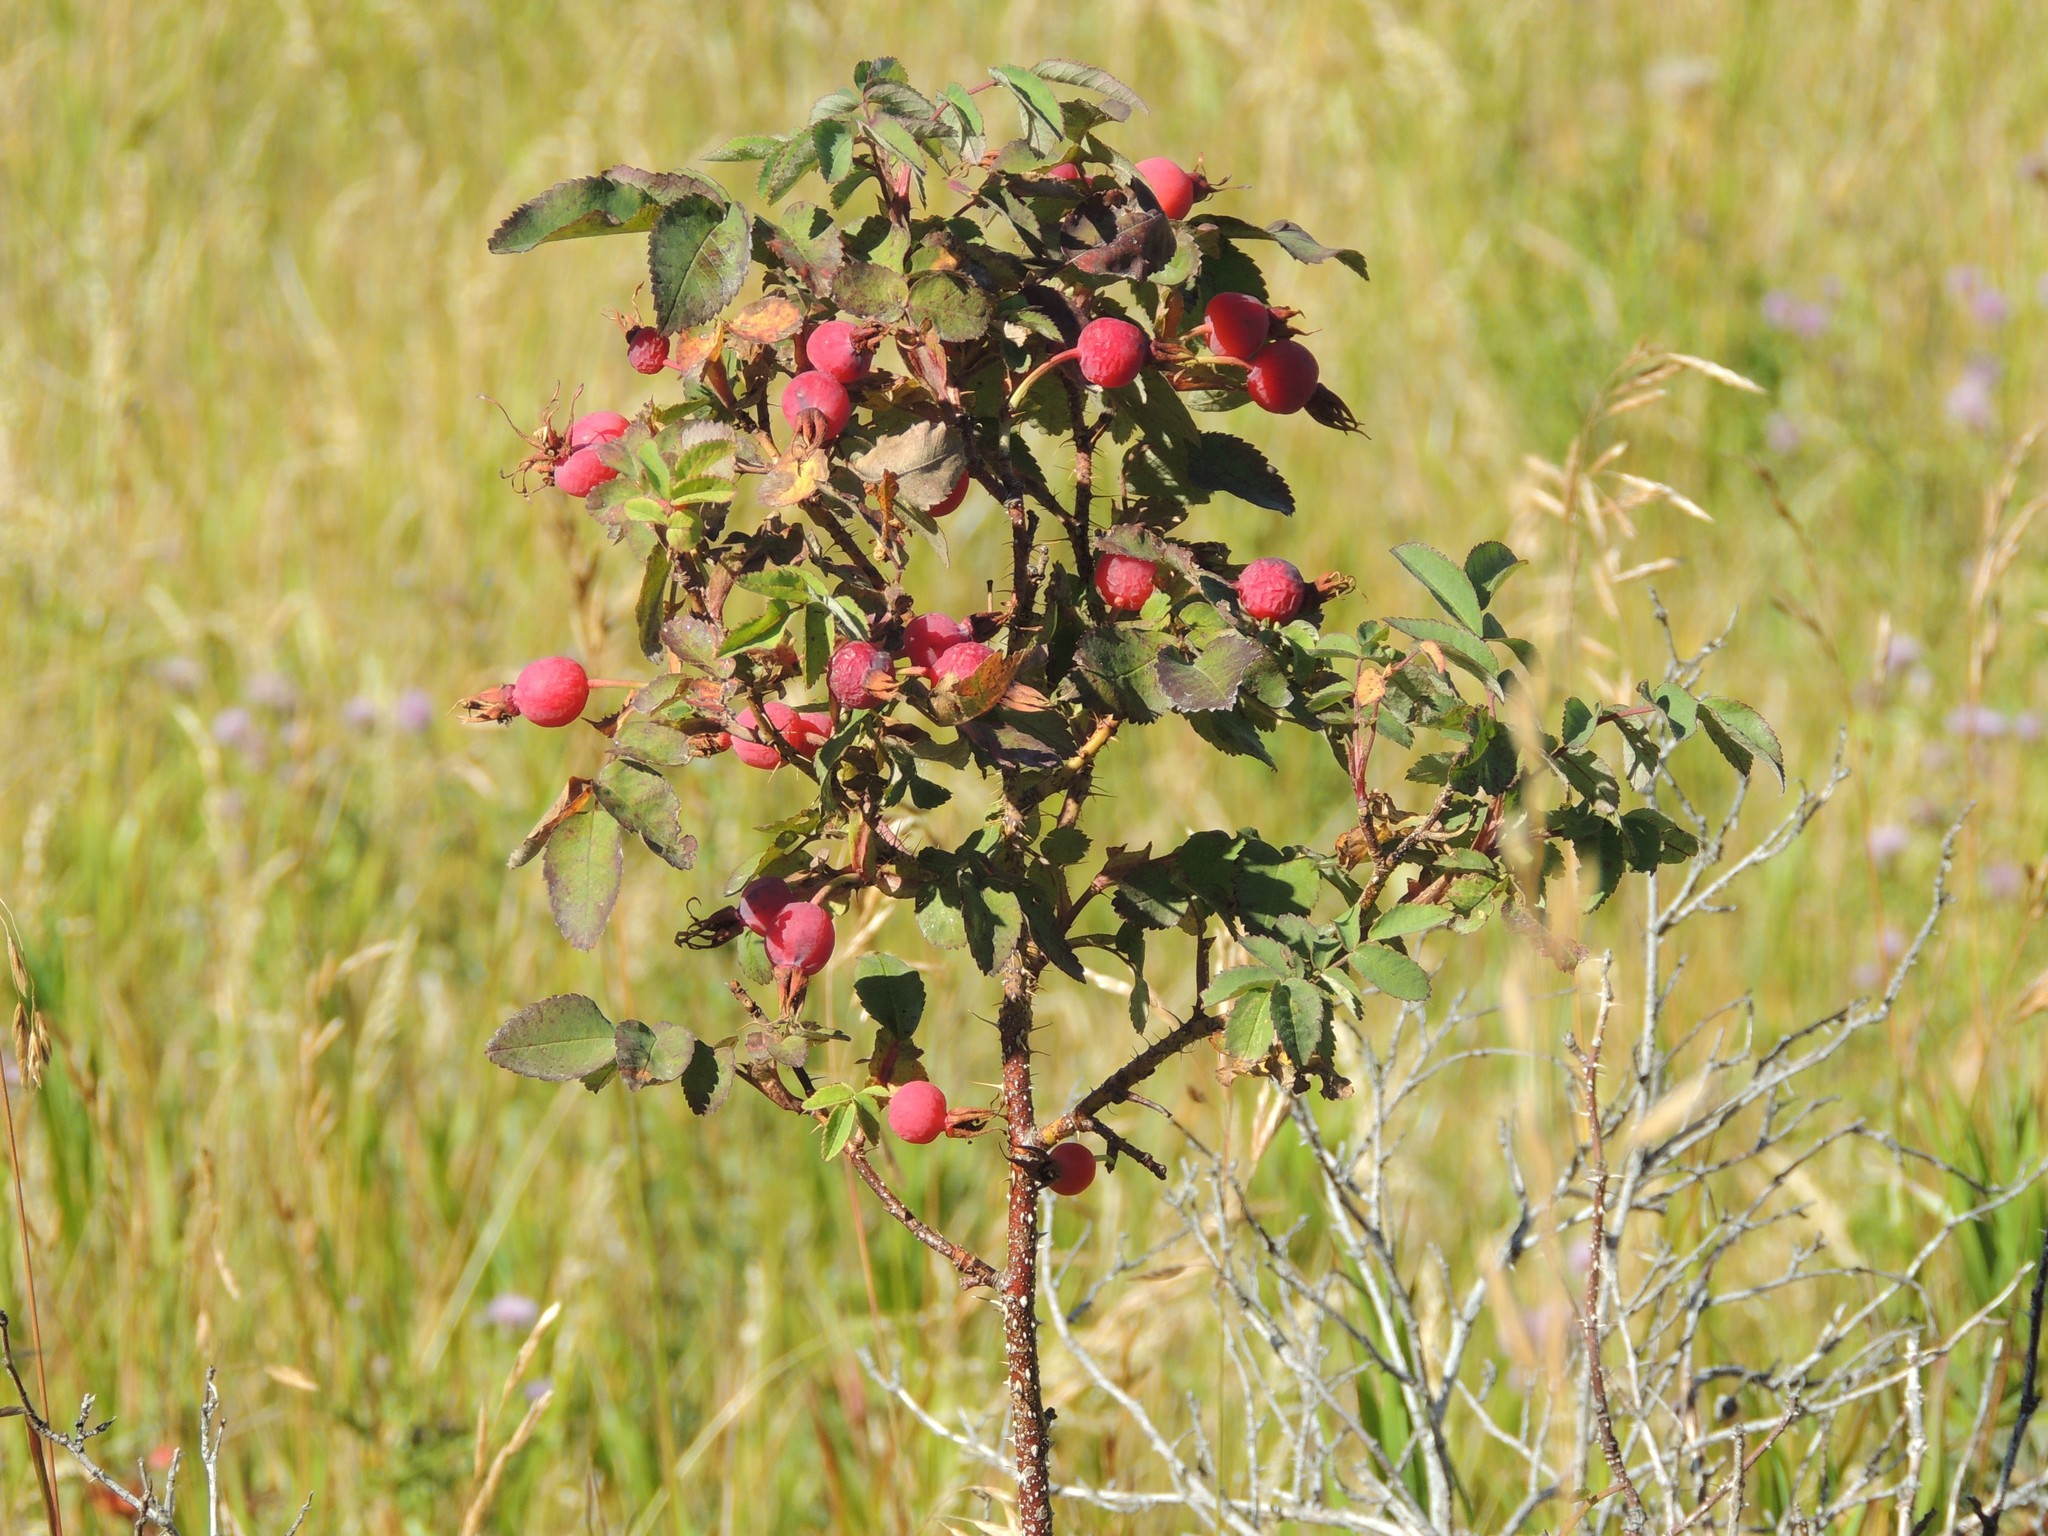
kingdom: Plantae
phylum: Tracheophyta
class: Magnoliopsida
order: Rosales
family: Rosaceae
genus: Rosa
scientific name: Rosa woodsii
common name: Woods's rose
